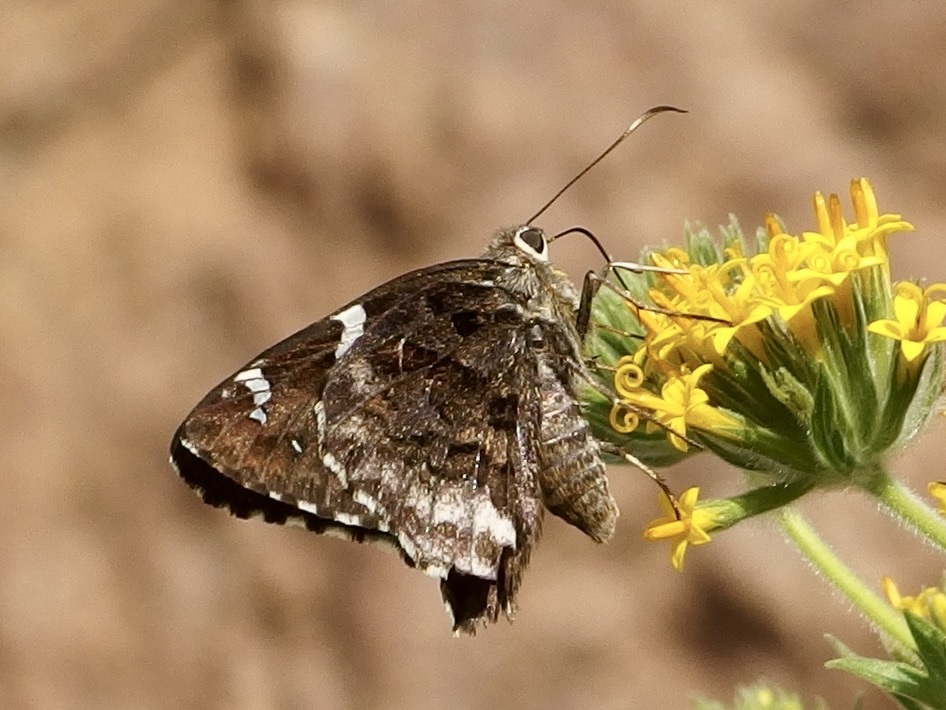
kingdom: Animalia
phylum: Arthropoda
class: Insecta
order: Lepidoptera
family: Hesperiidae
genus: Codatractus
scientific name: Codatractus arizonensis
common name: Arizona skipper
